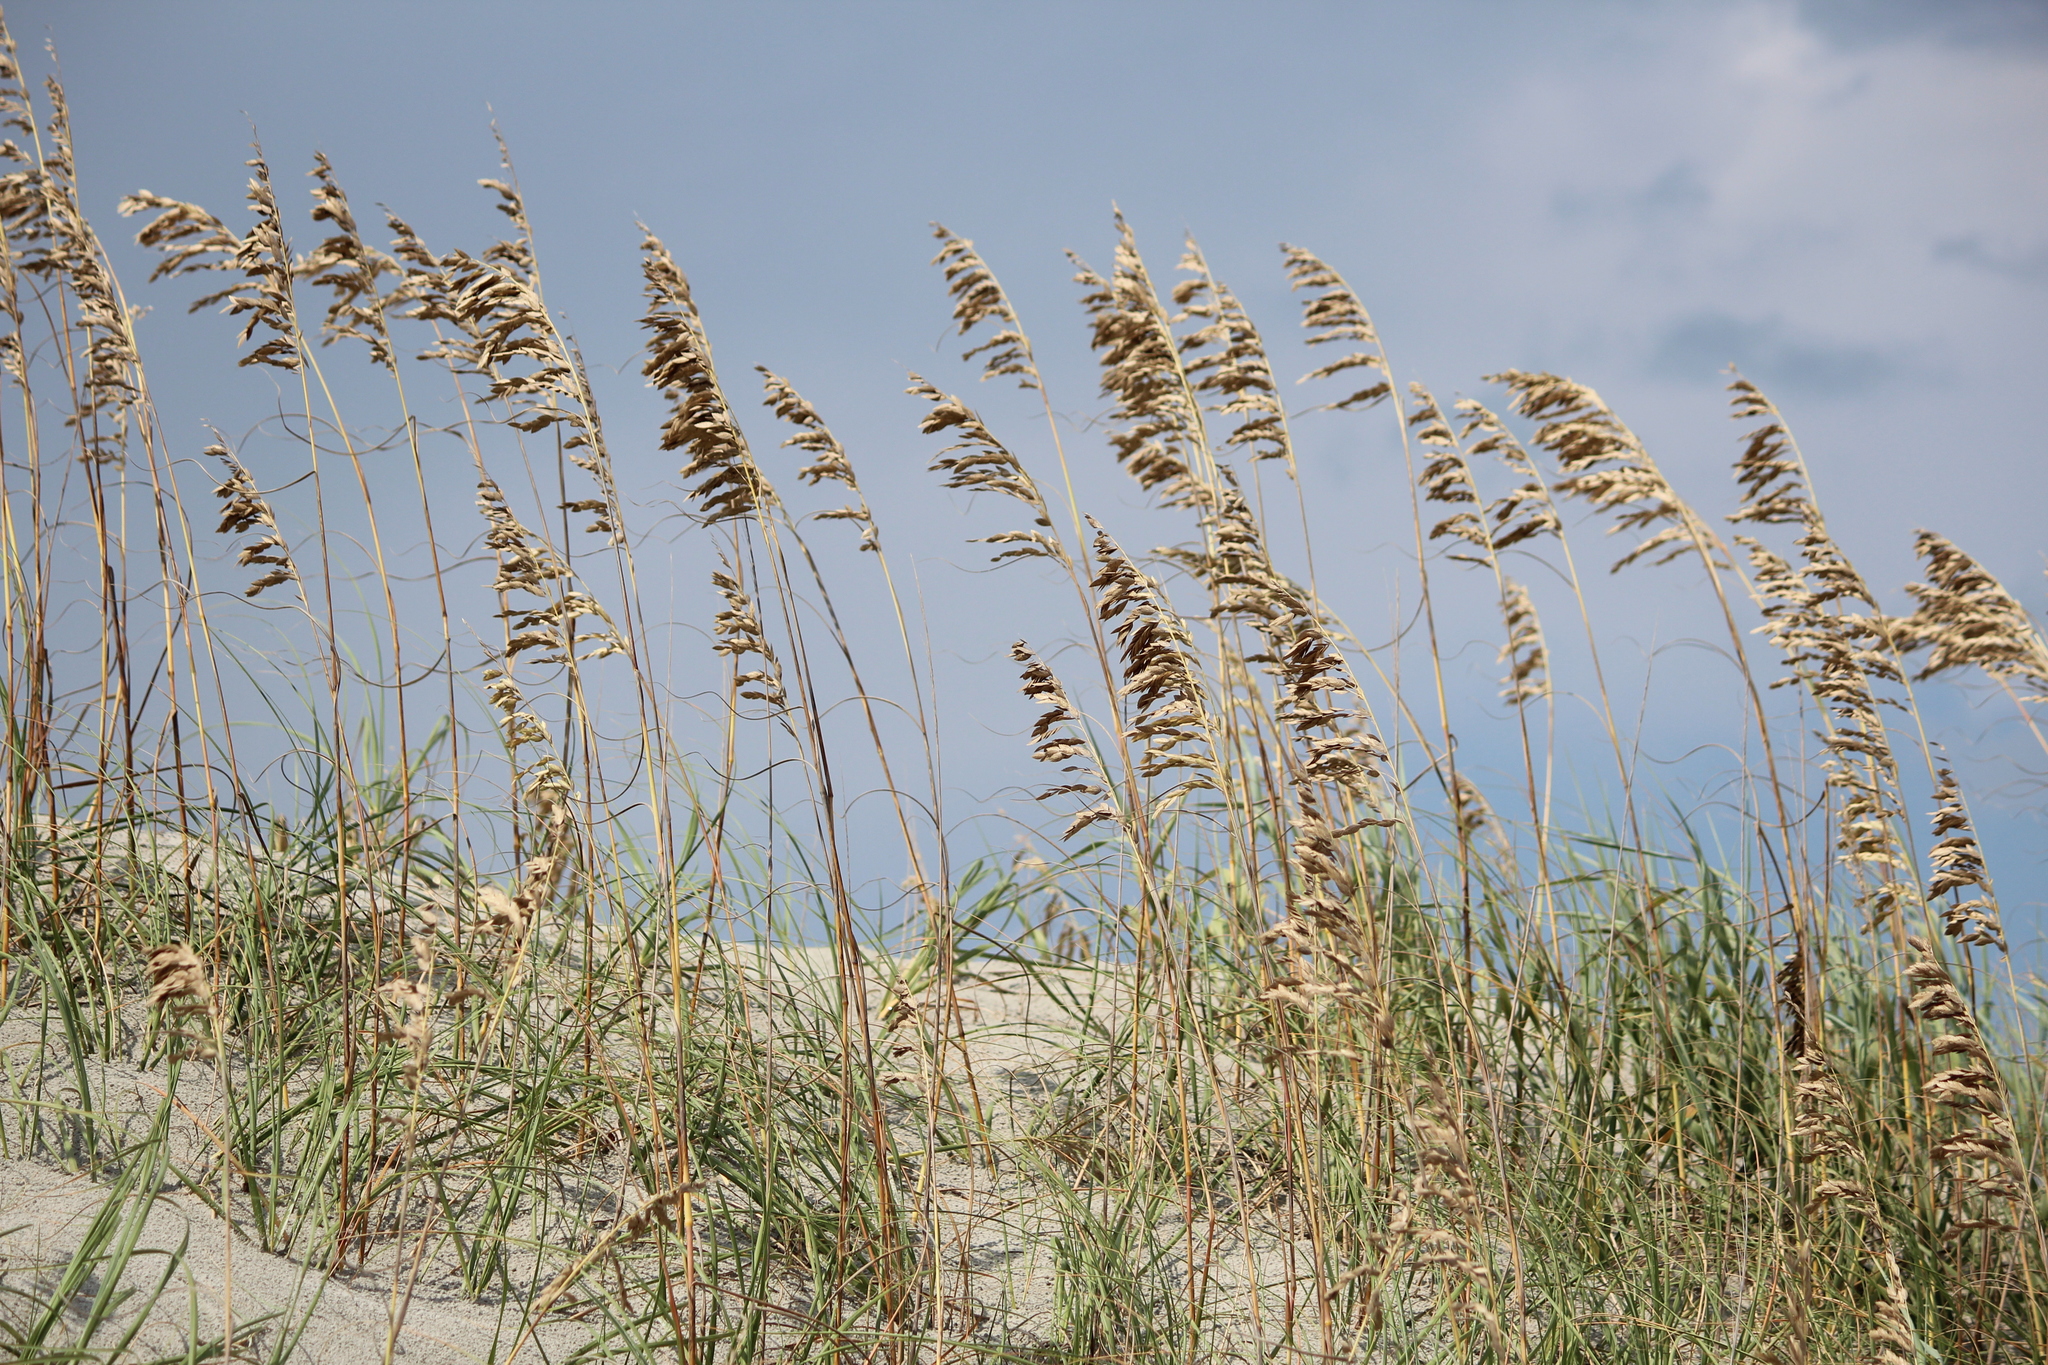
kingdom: Plantae
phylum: Tracheophyta
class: Liliopsida
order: Poales
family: Poaceae
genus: Uniola
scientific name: Uniola paniculata
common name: Seaside-oats
